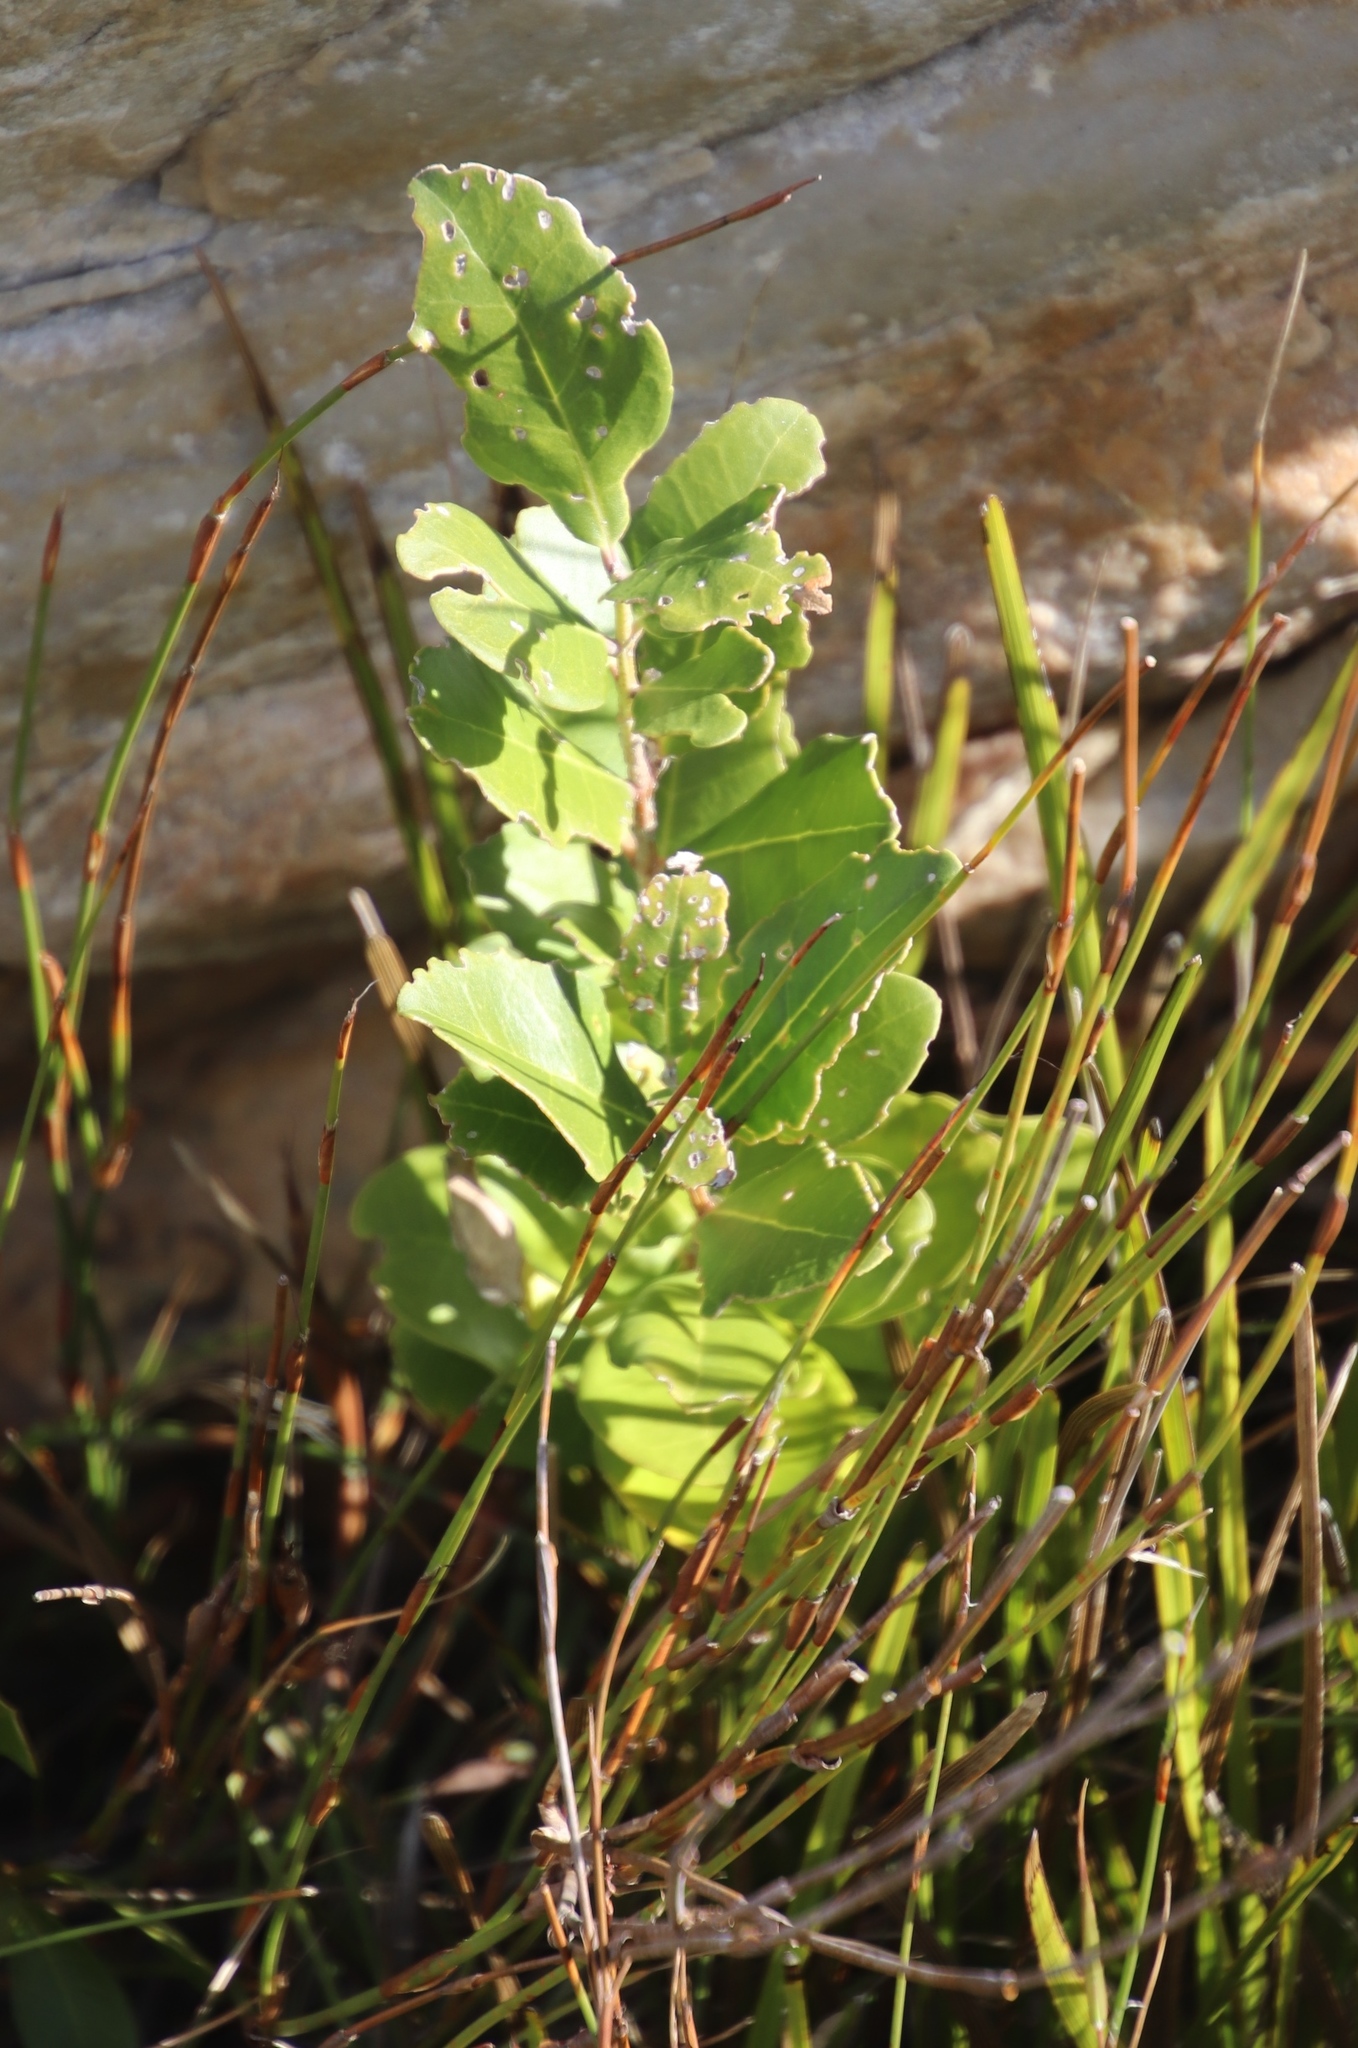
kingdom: Plantae
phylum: Tracheophyta
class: Magnoliopsida
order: Lamiales
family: Oleaceae
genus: Olea
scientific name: Olea capensis
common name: Black ironwood
